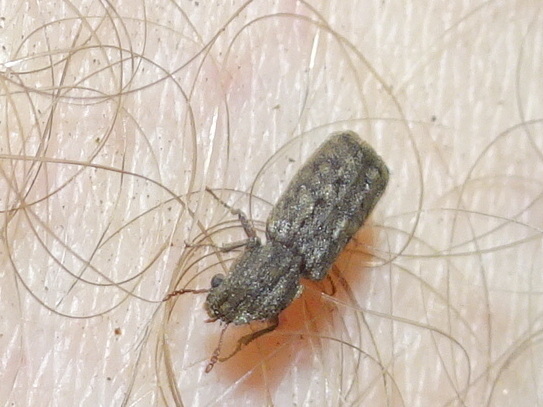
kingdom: Animalia
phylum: Arthropoda
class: Insecta
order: Coleoptera
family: Bostrichidae
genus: Lichenophanes
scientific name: Lichenophanes bicornis
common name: Two-horned powder-post beetle
